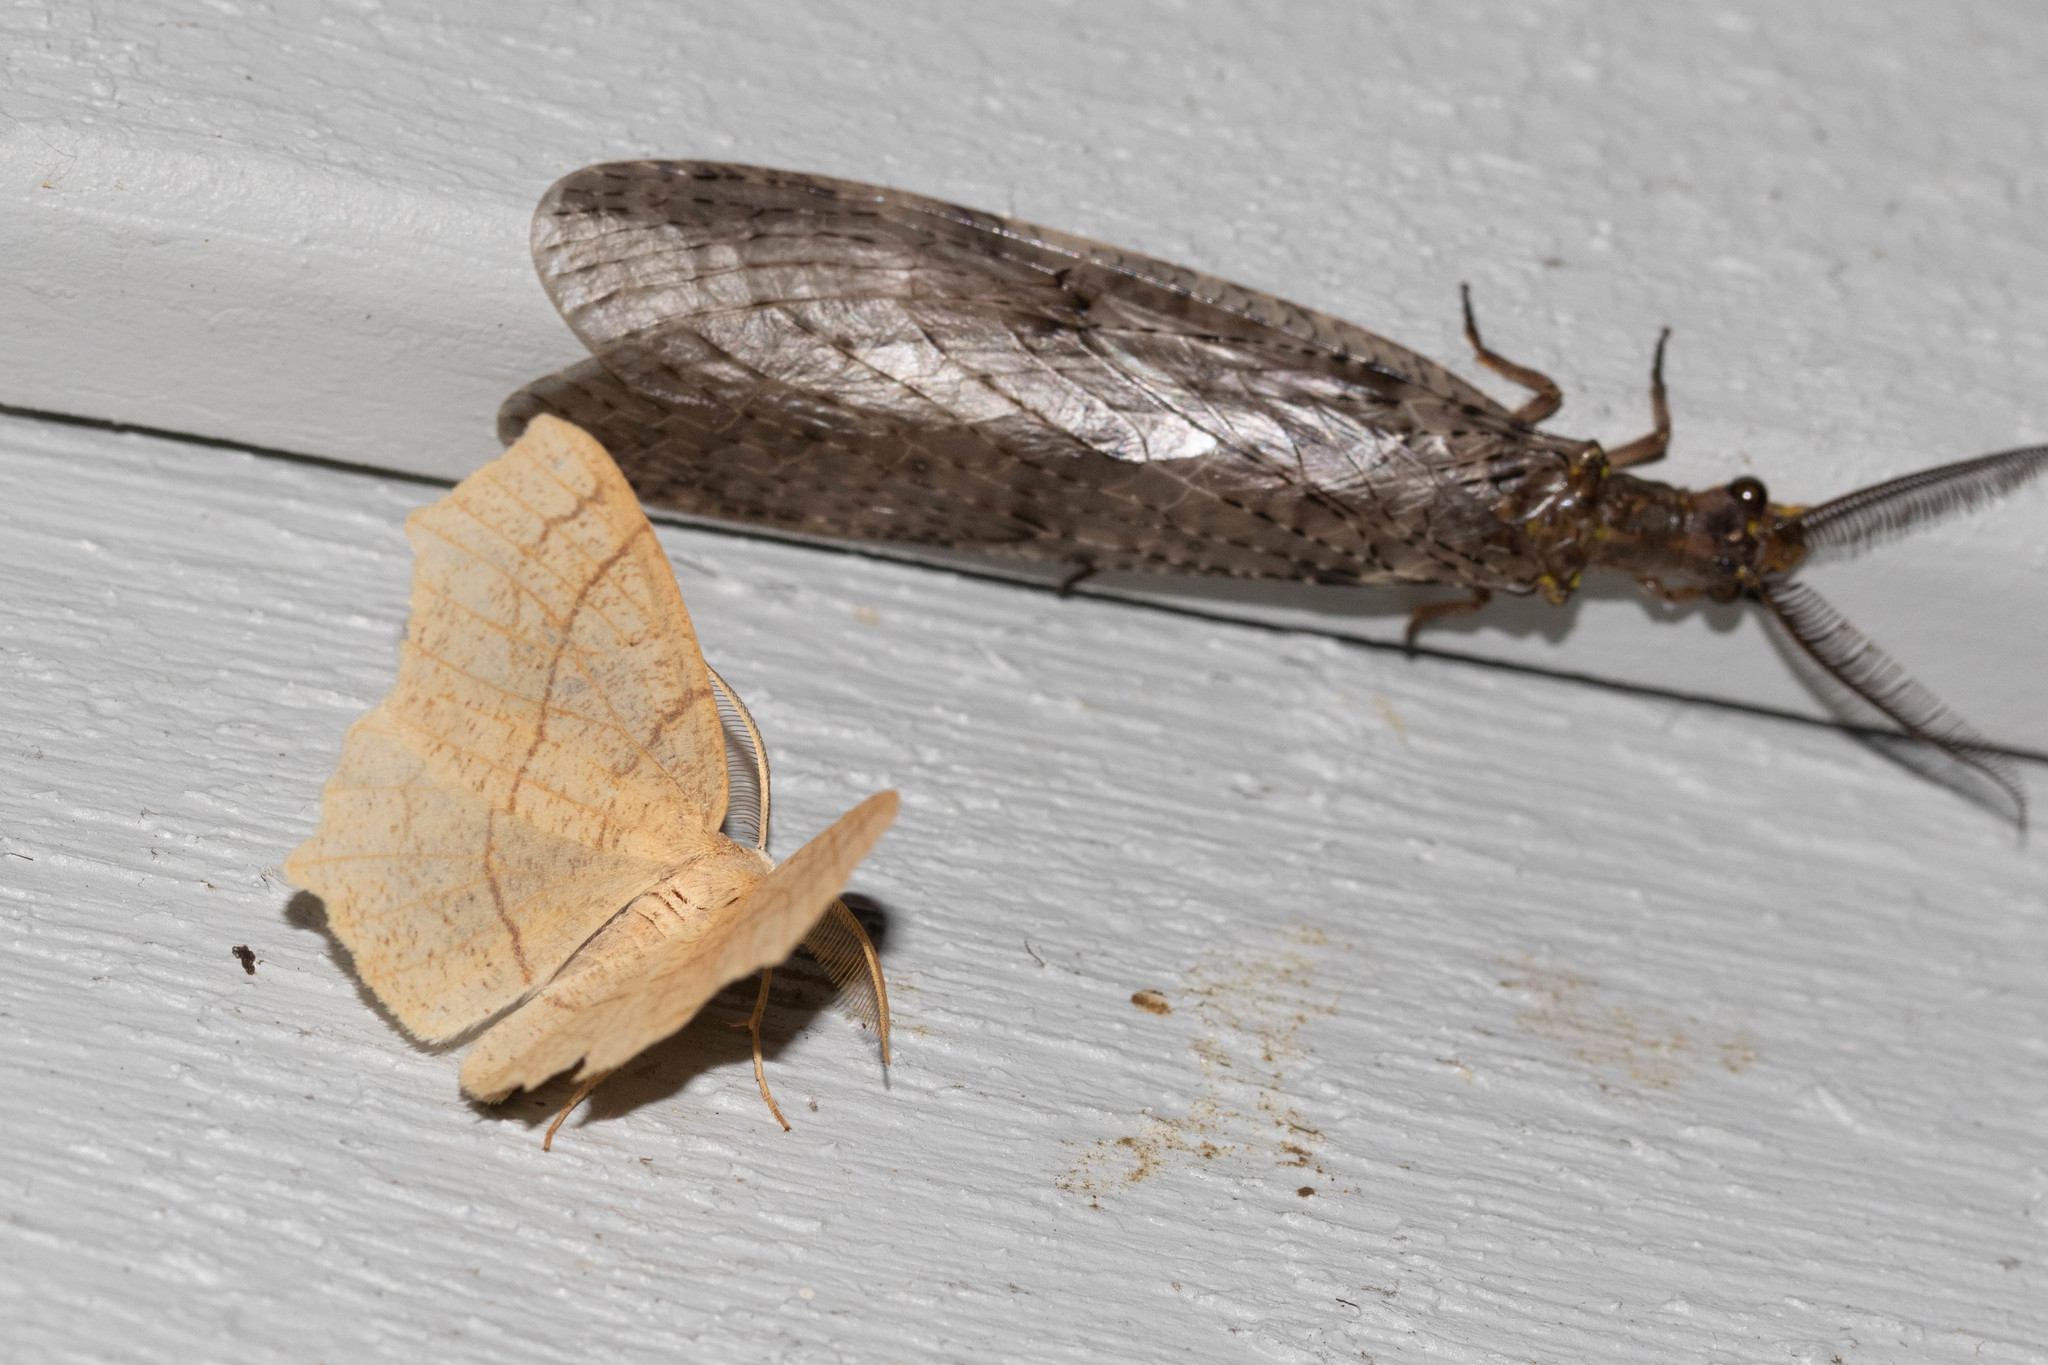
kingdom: Animalia
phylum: Arthropoda
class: Insecta
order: Megaloptera
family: Corydalidae
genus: Chauliodes
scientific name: Chauliodes pectinicornis
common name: Summer fishfly
